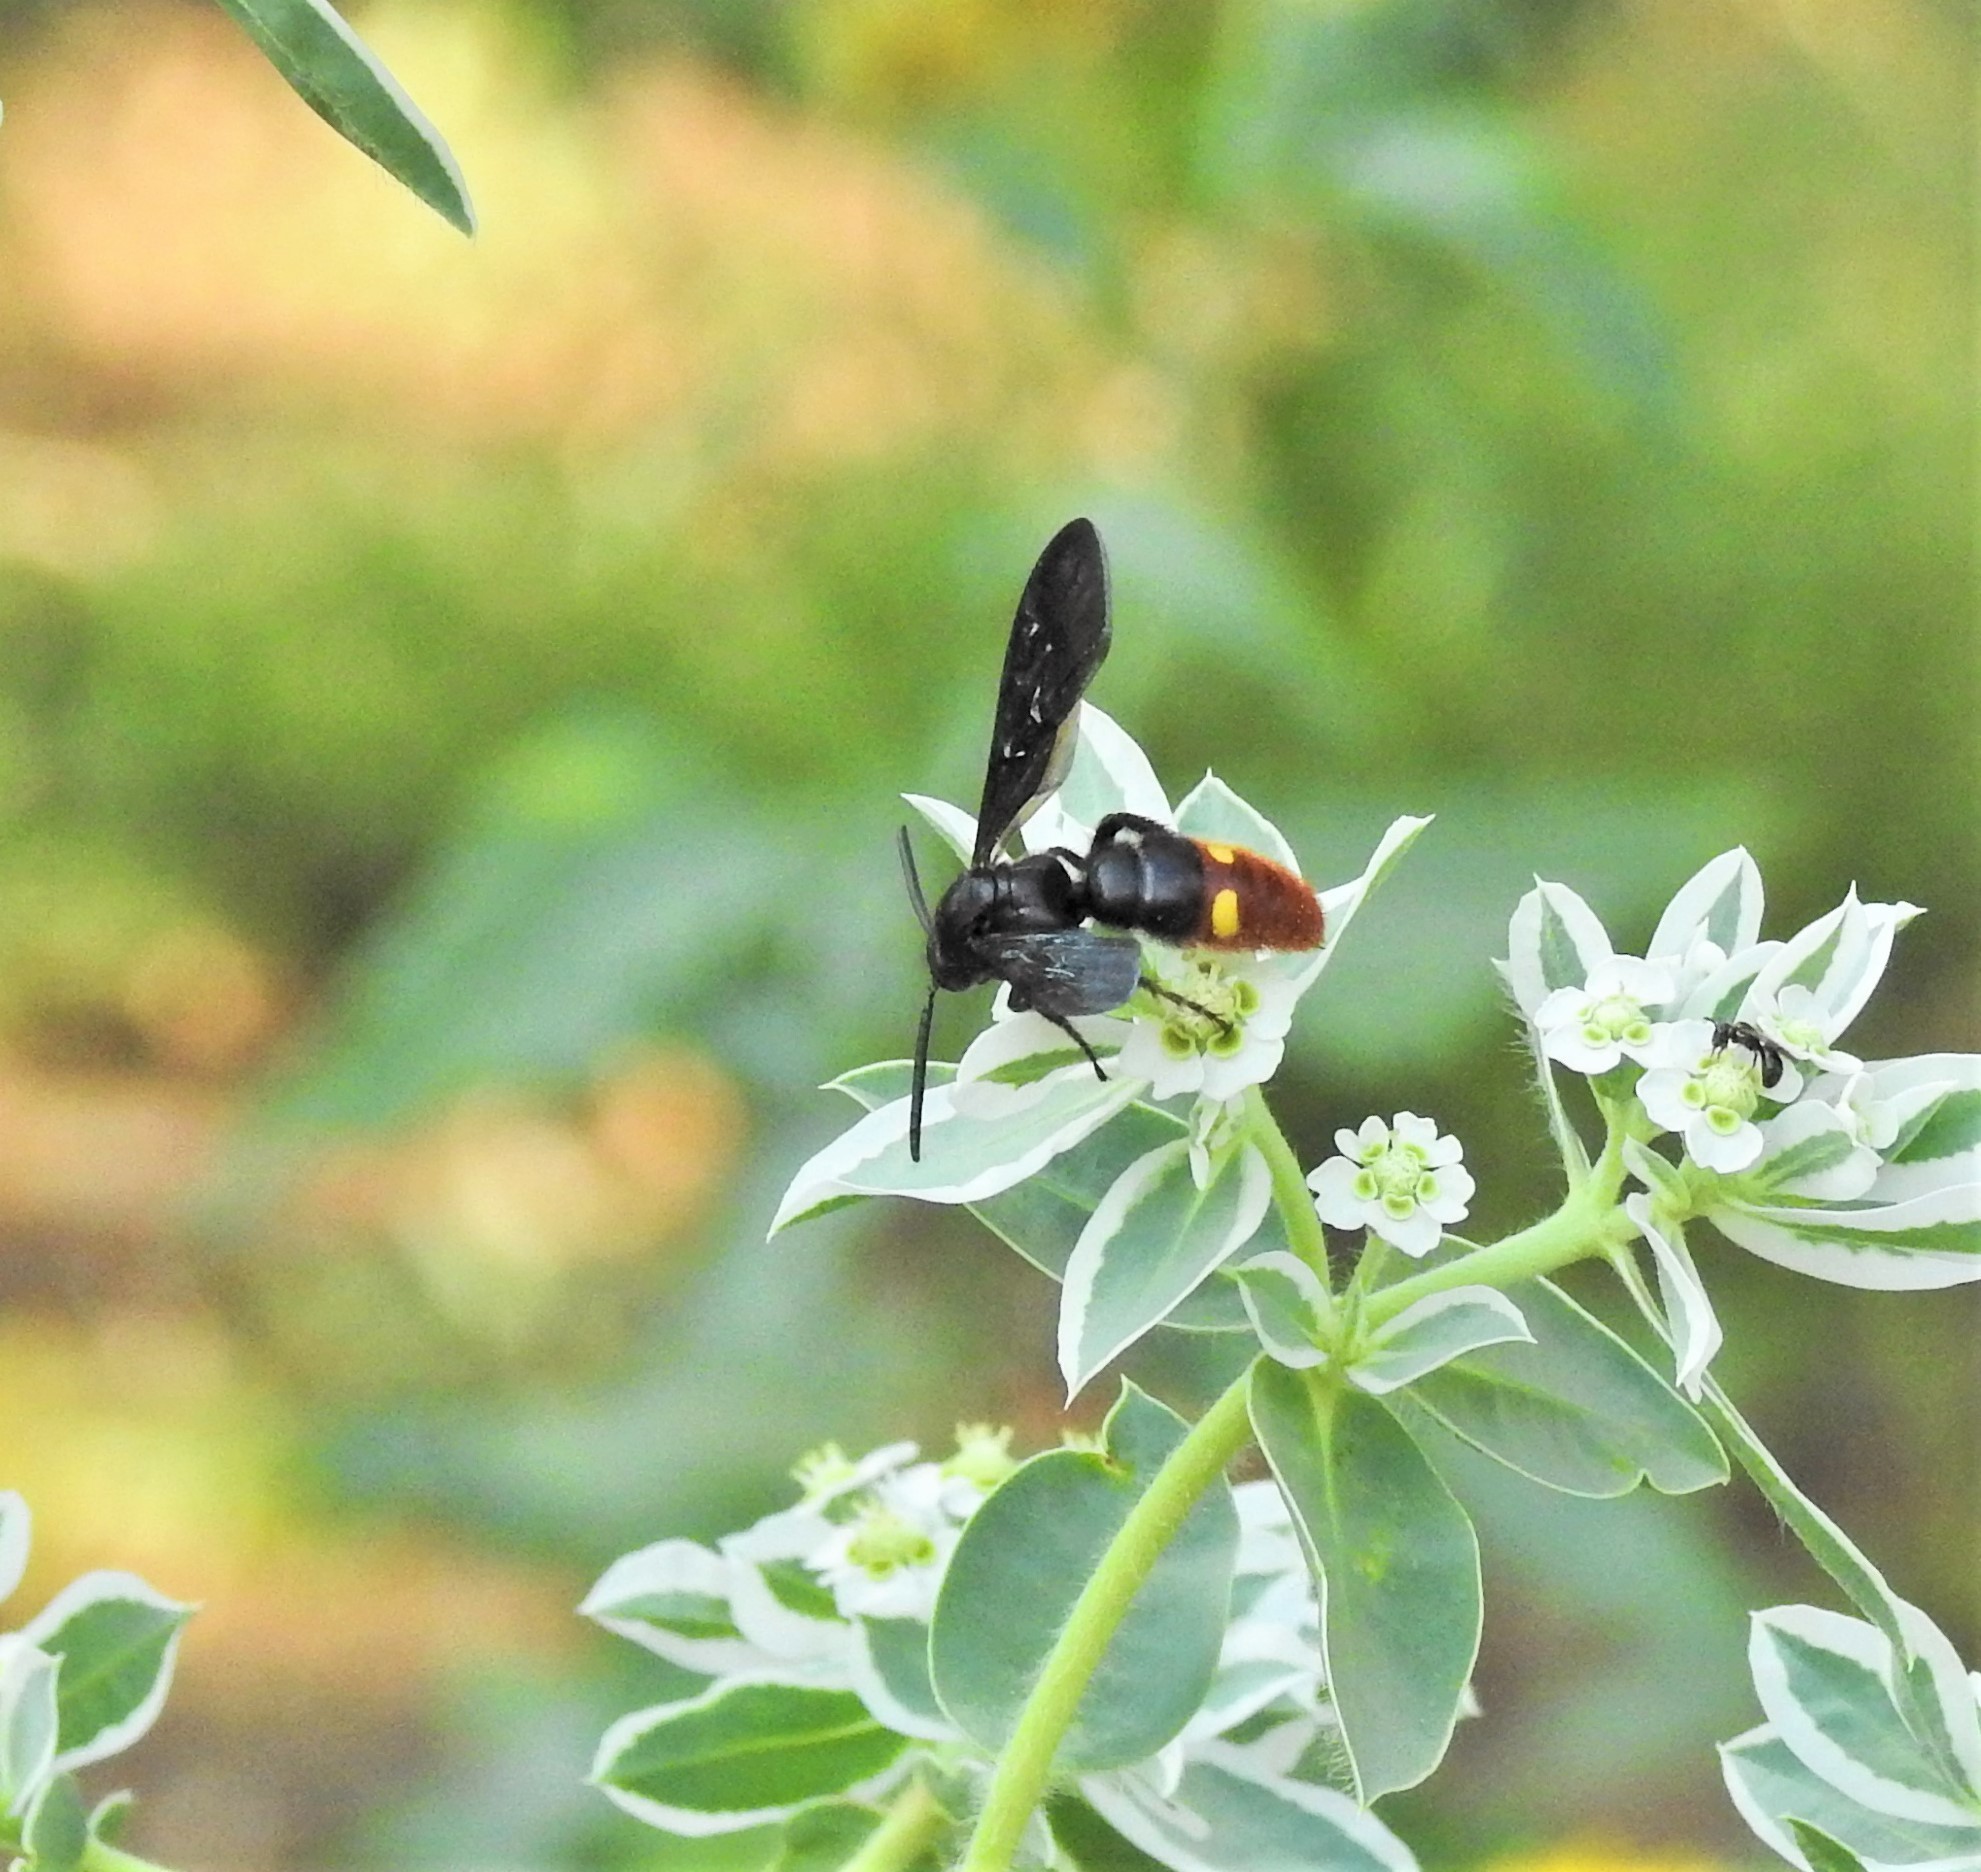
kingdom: Animalia
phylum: Arthropoda
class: Insecta
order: Hymenoptera
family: Scoliidae
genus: Scolia
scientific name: Scolia dubia
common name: Blue-winged scoliid wasp
